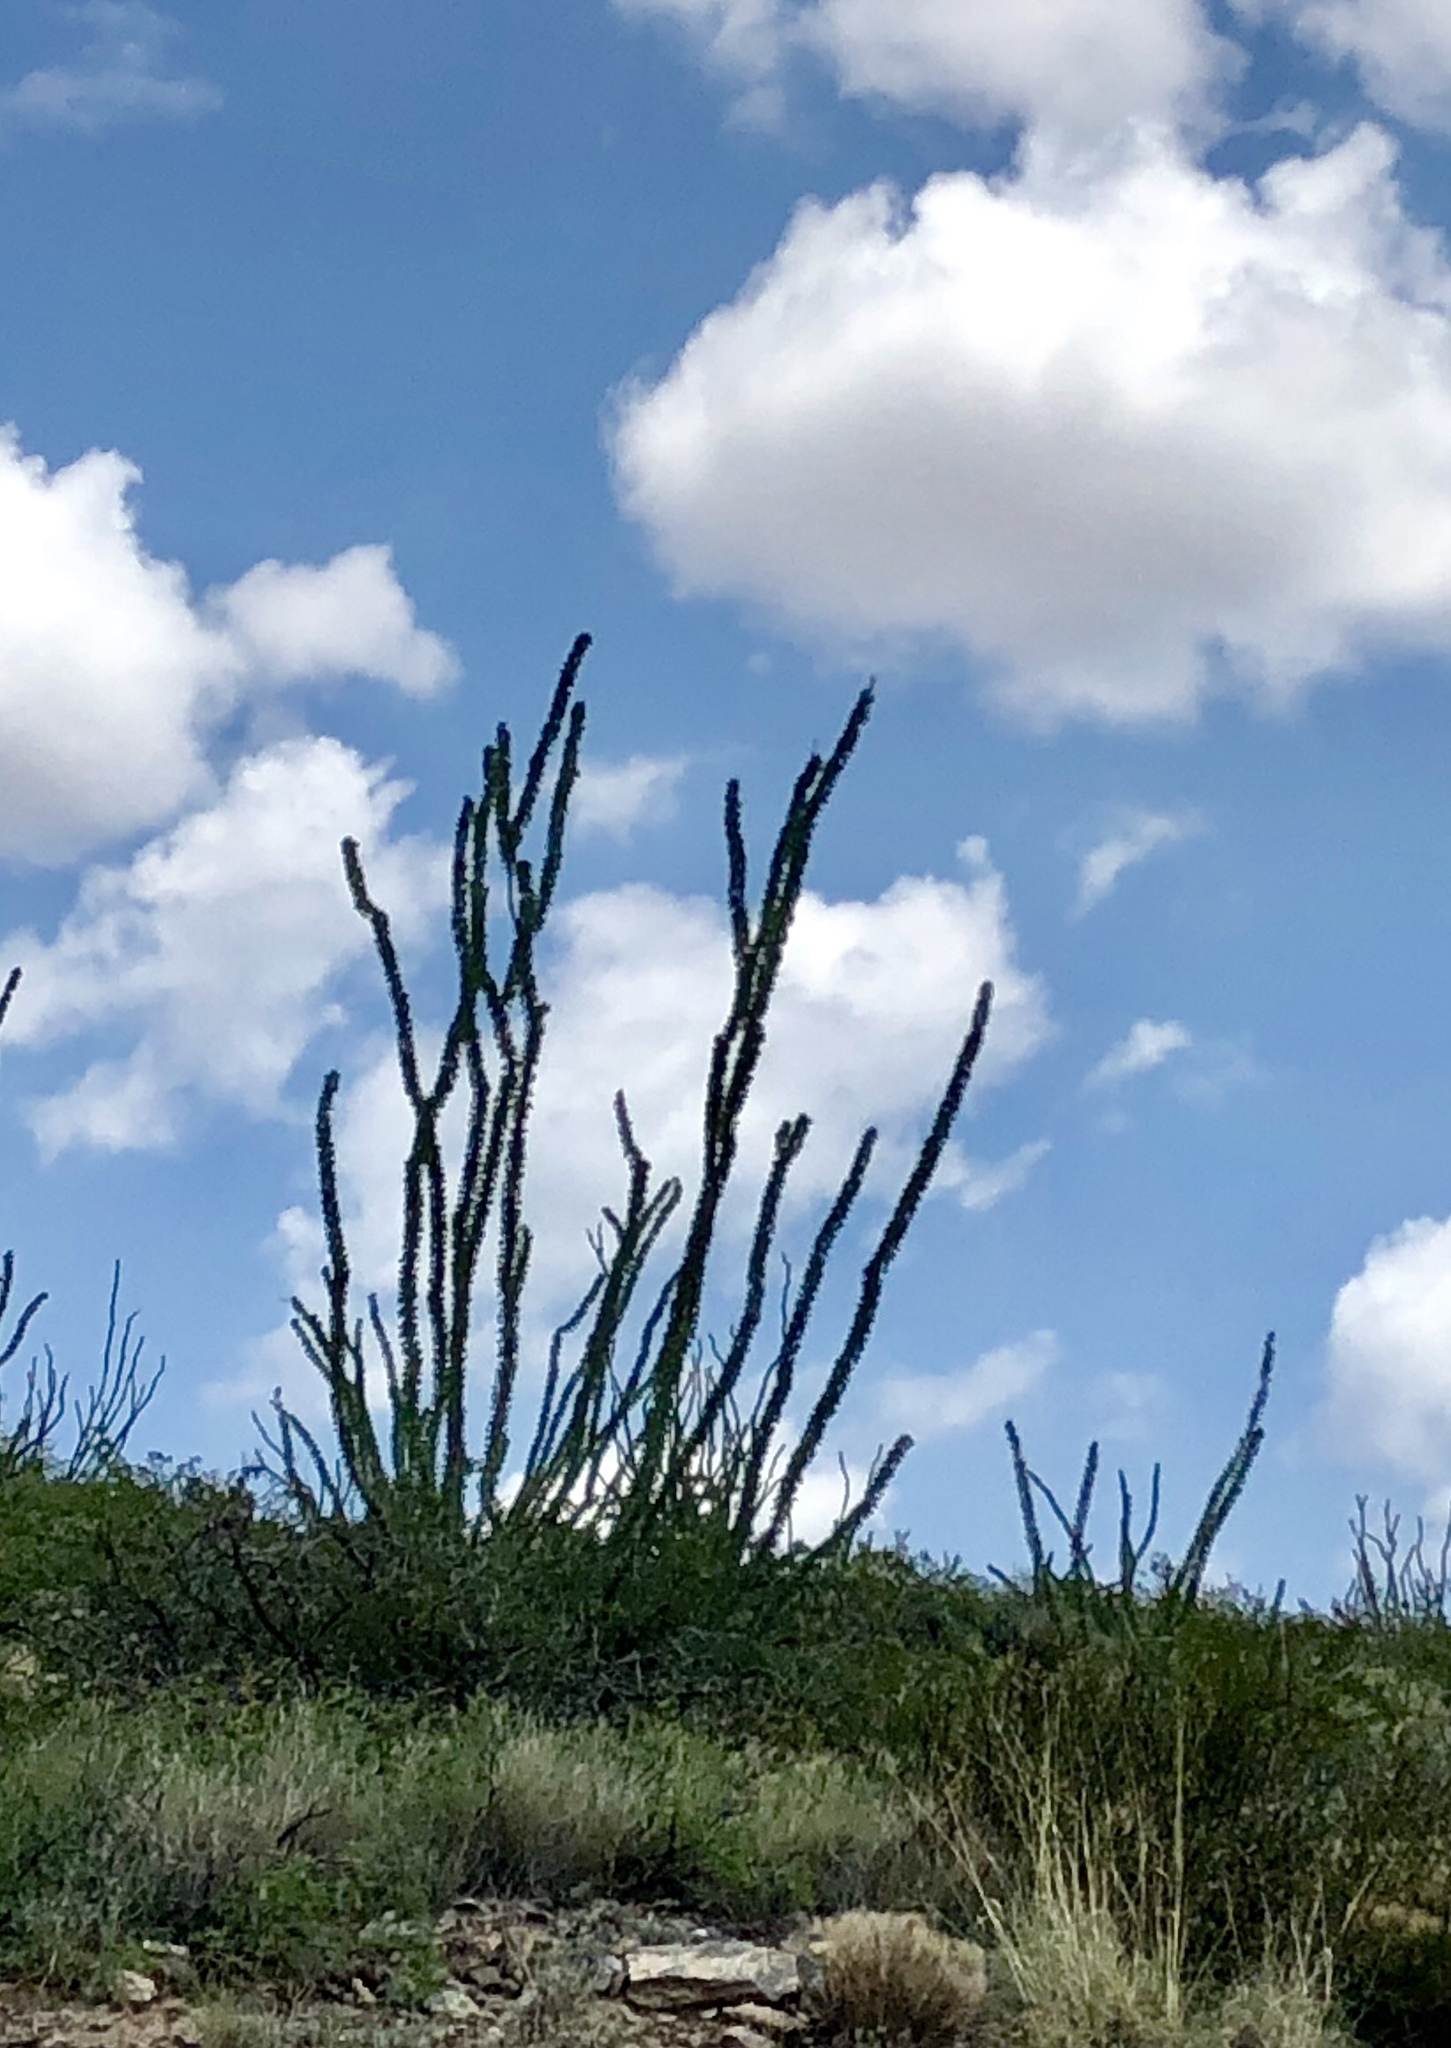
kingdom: Plantae
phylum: Tracheophyta
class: Magnoliopsida
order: Ericales
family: Fouquieriaceae
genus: Fouquieria
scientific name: Fouquieria splendens
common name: Vine-cactus
